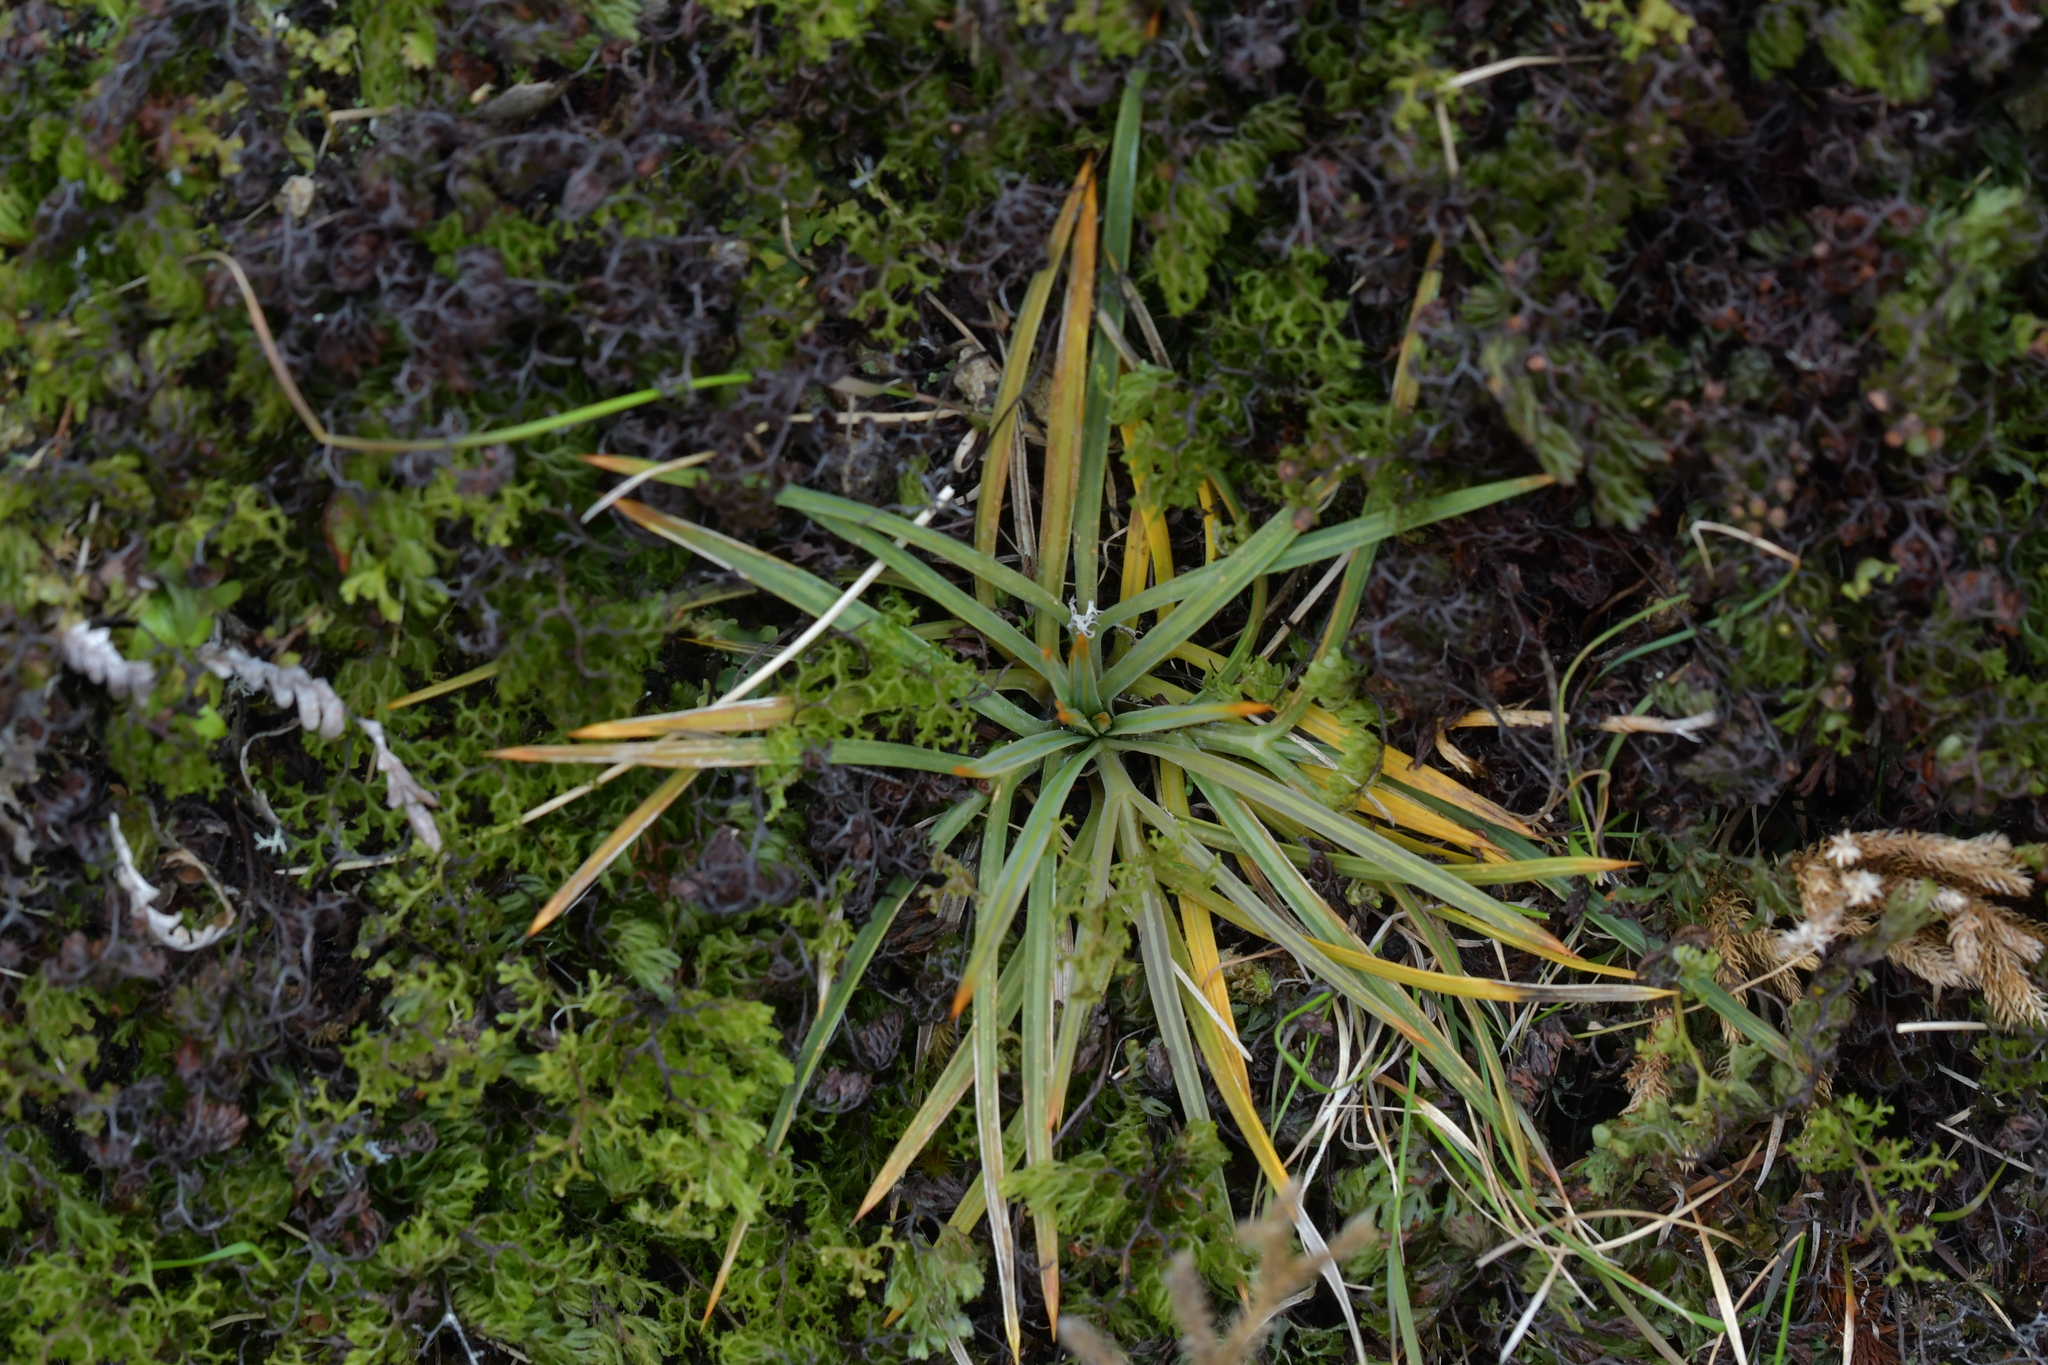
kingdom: Plantae
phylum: Tracheophyta
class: Magnoliopsida
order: Apiales
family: Apiaceae
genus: Aciphylla
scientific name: Aciphylla squarrosa
